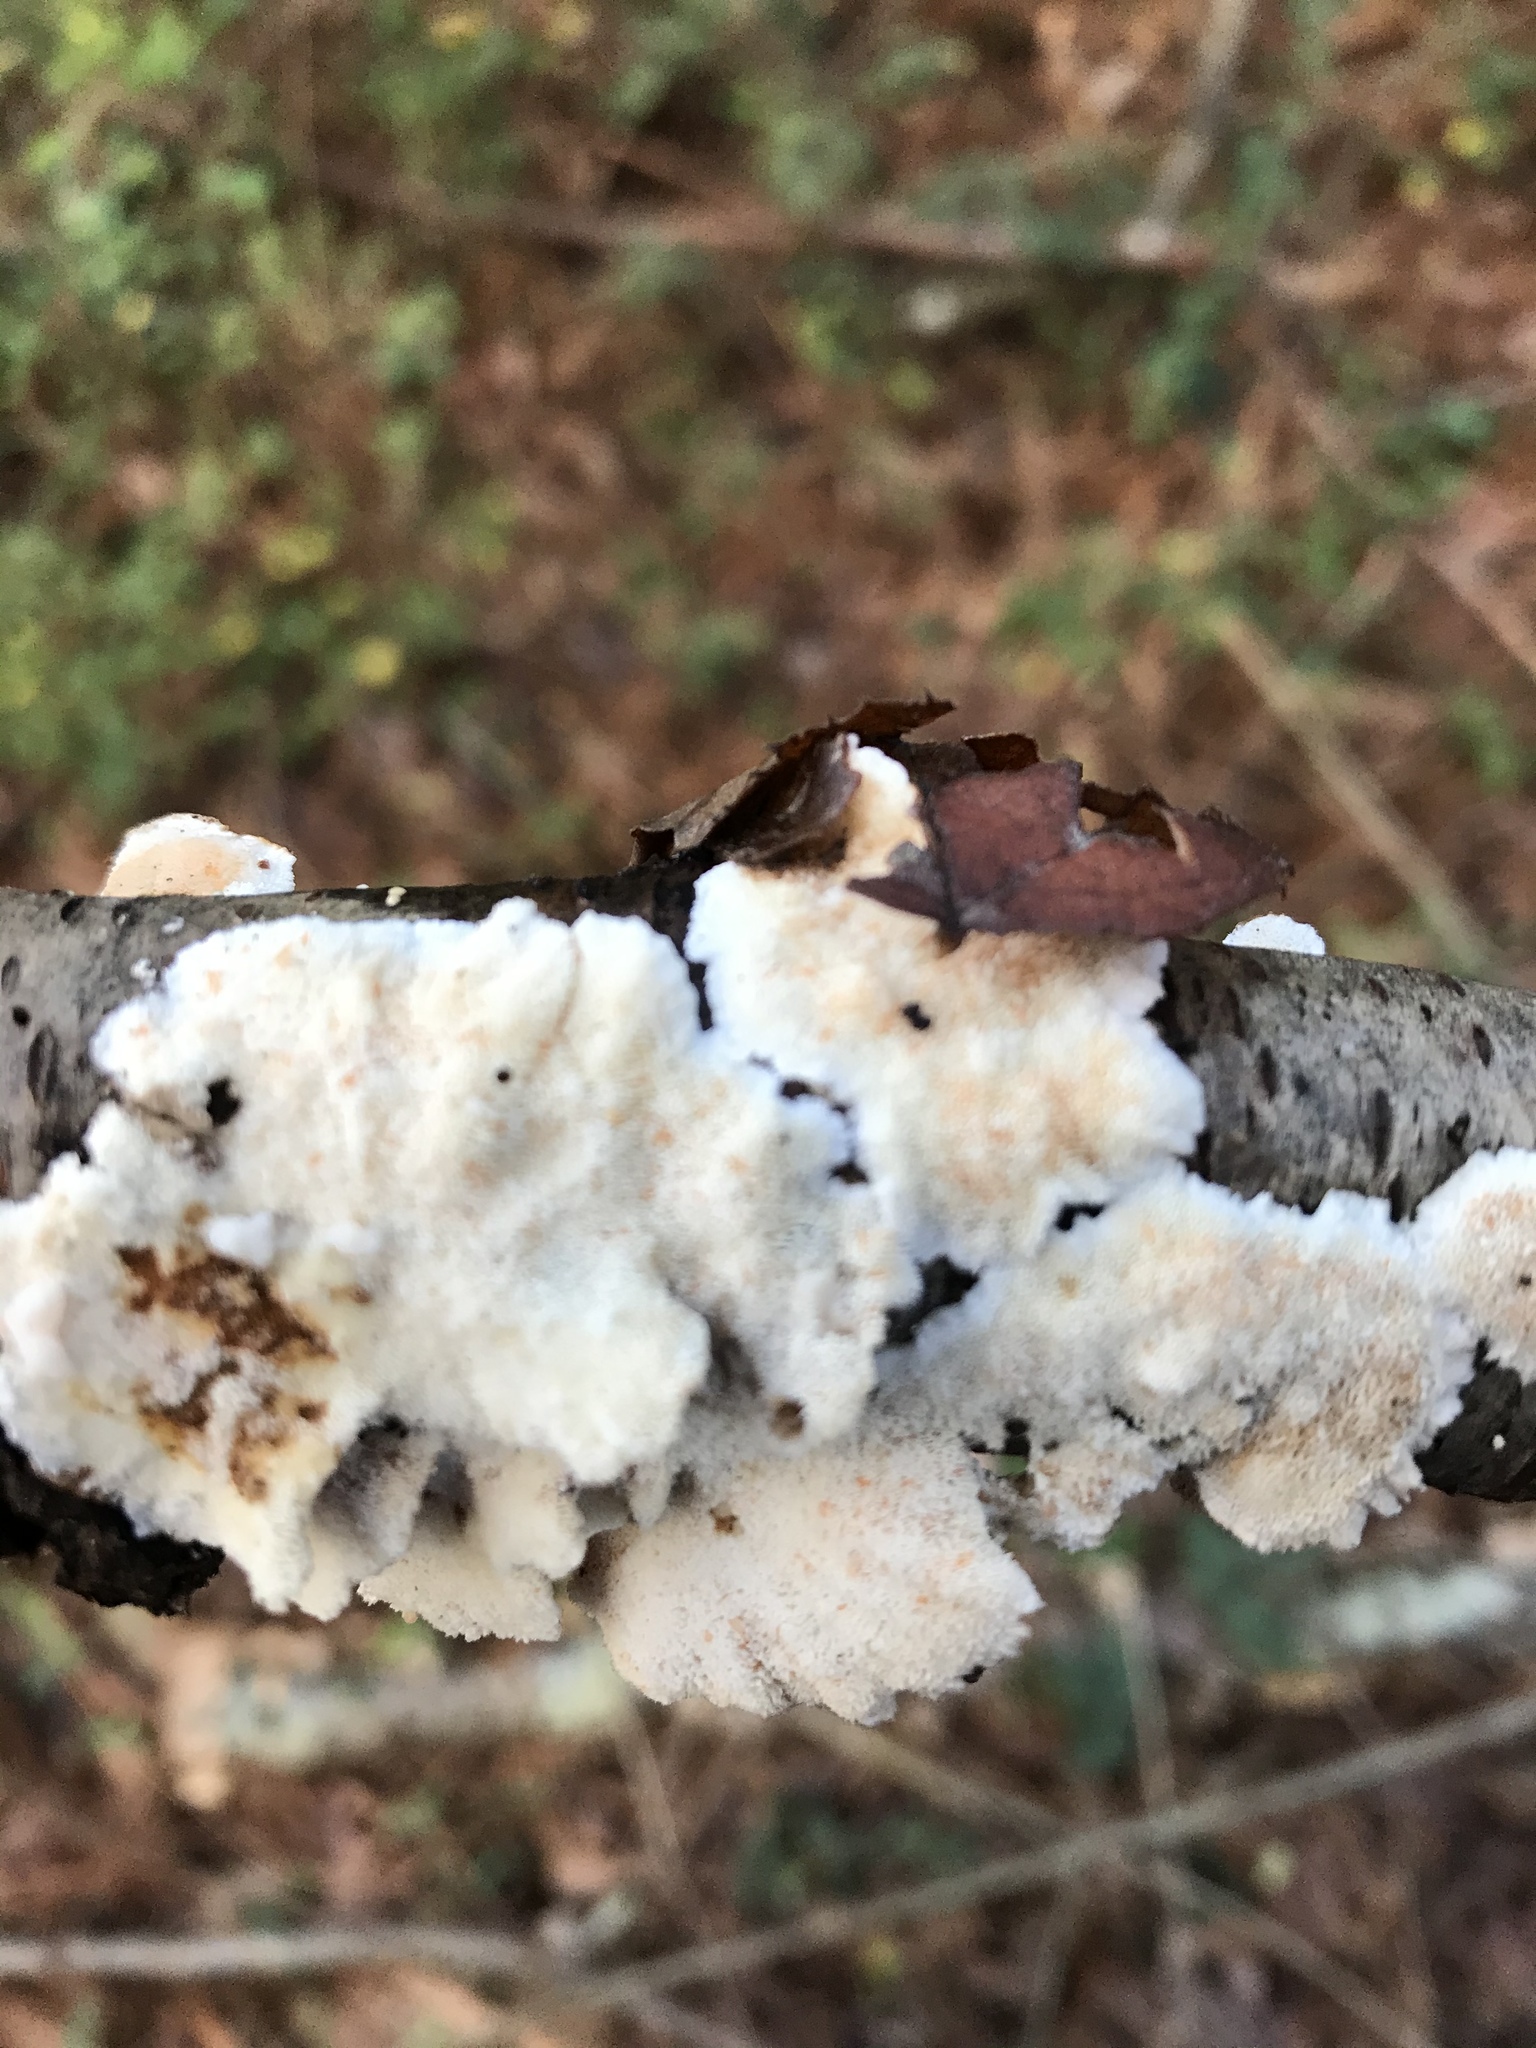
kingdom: Fungi
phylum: Basidiomycota
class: Agaricomycetes
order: Polyporales
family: Polyporaceae
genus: Trametes
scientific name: Trametes versicolor
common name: Turkeytail
